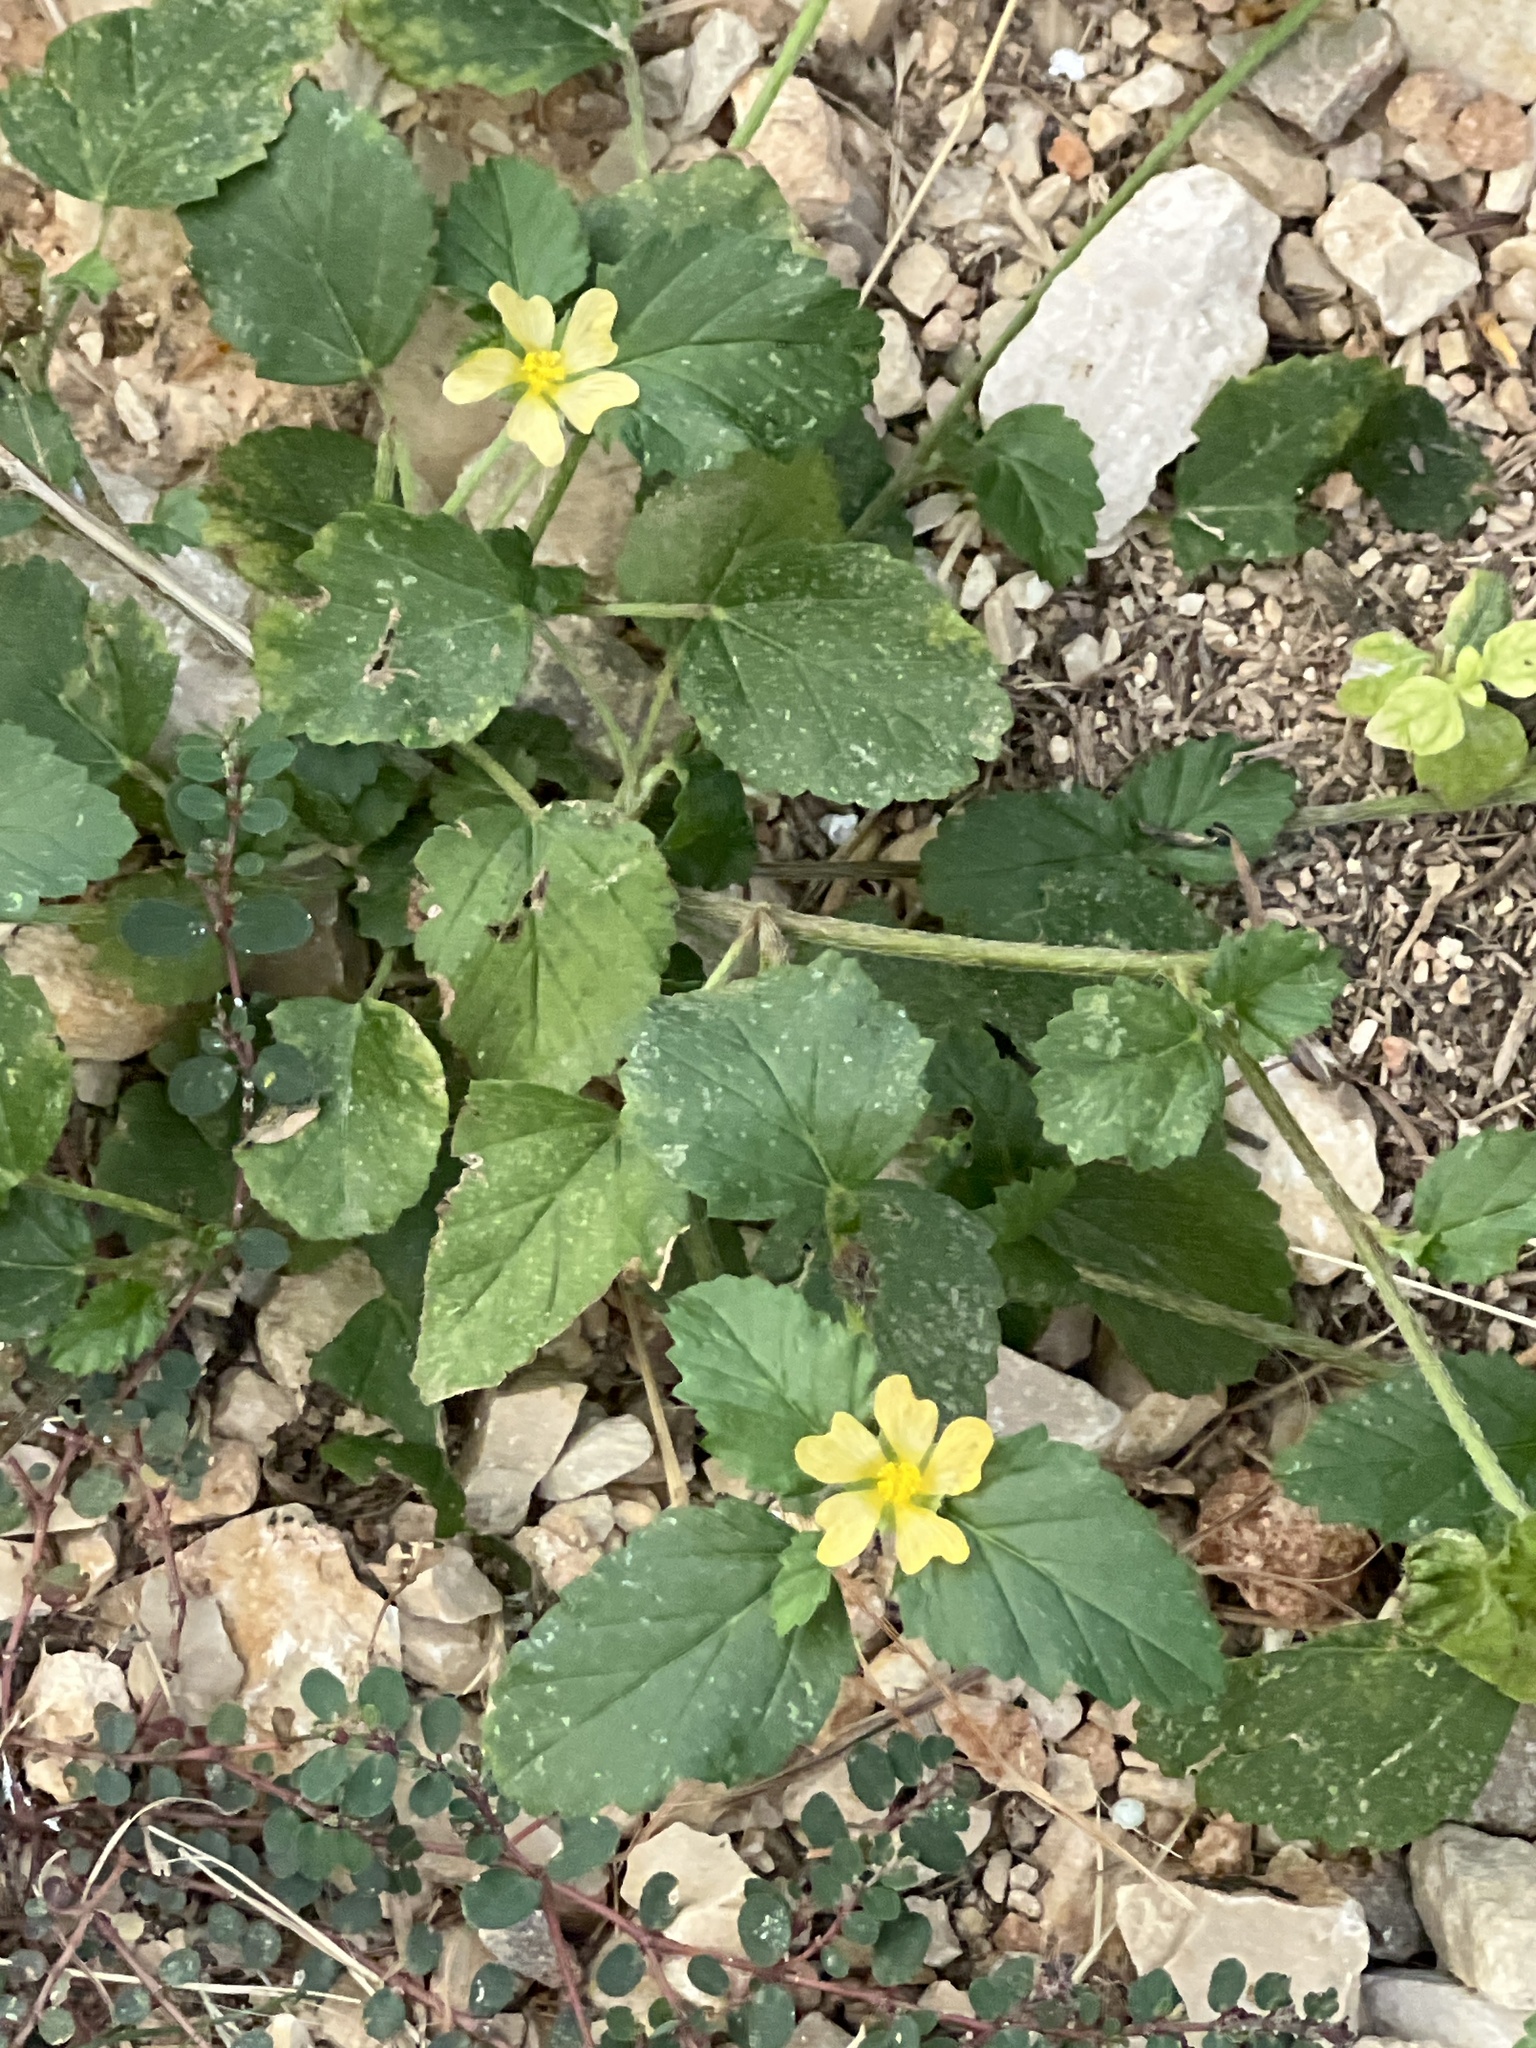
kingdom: Plantae
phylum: Tracheophyta
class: Magnoliopsida
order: Malvales
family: Malvaceae
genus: Malvastrum
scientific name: Malvastrum coromandelianum
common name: Threelobe false mallow
